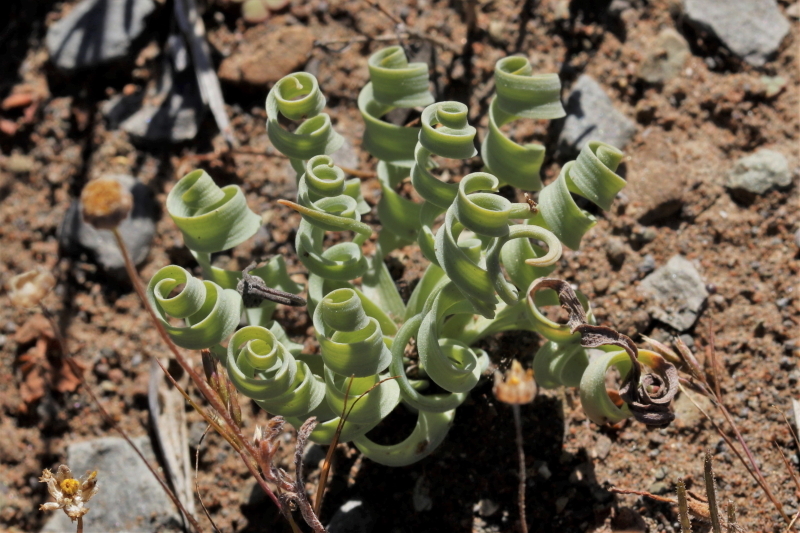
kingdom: Plantae
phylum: Tracheophyta
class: Liliopsida
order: Asparagales
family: Asparagaceae
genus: Albuca
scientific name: Albuca concordiana
